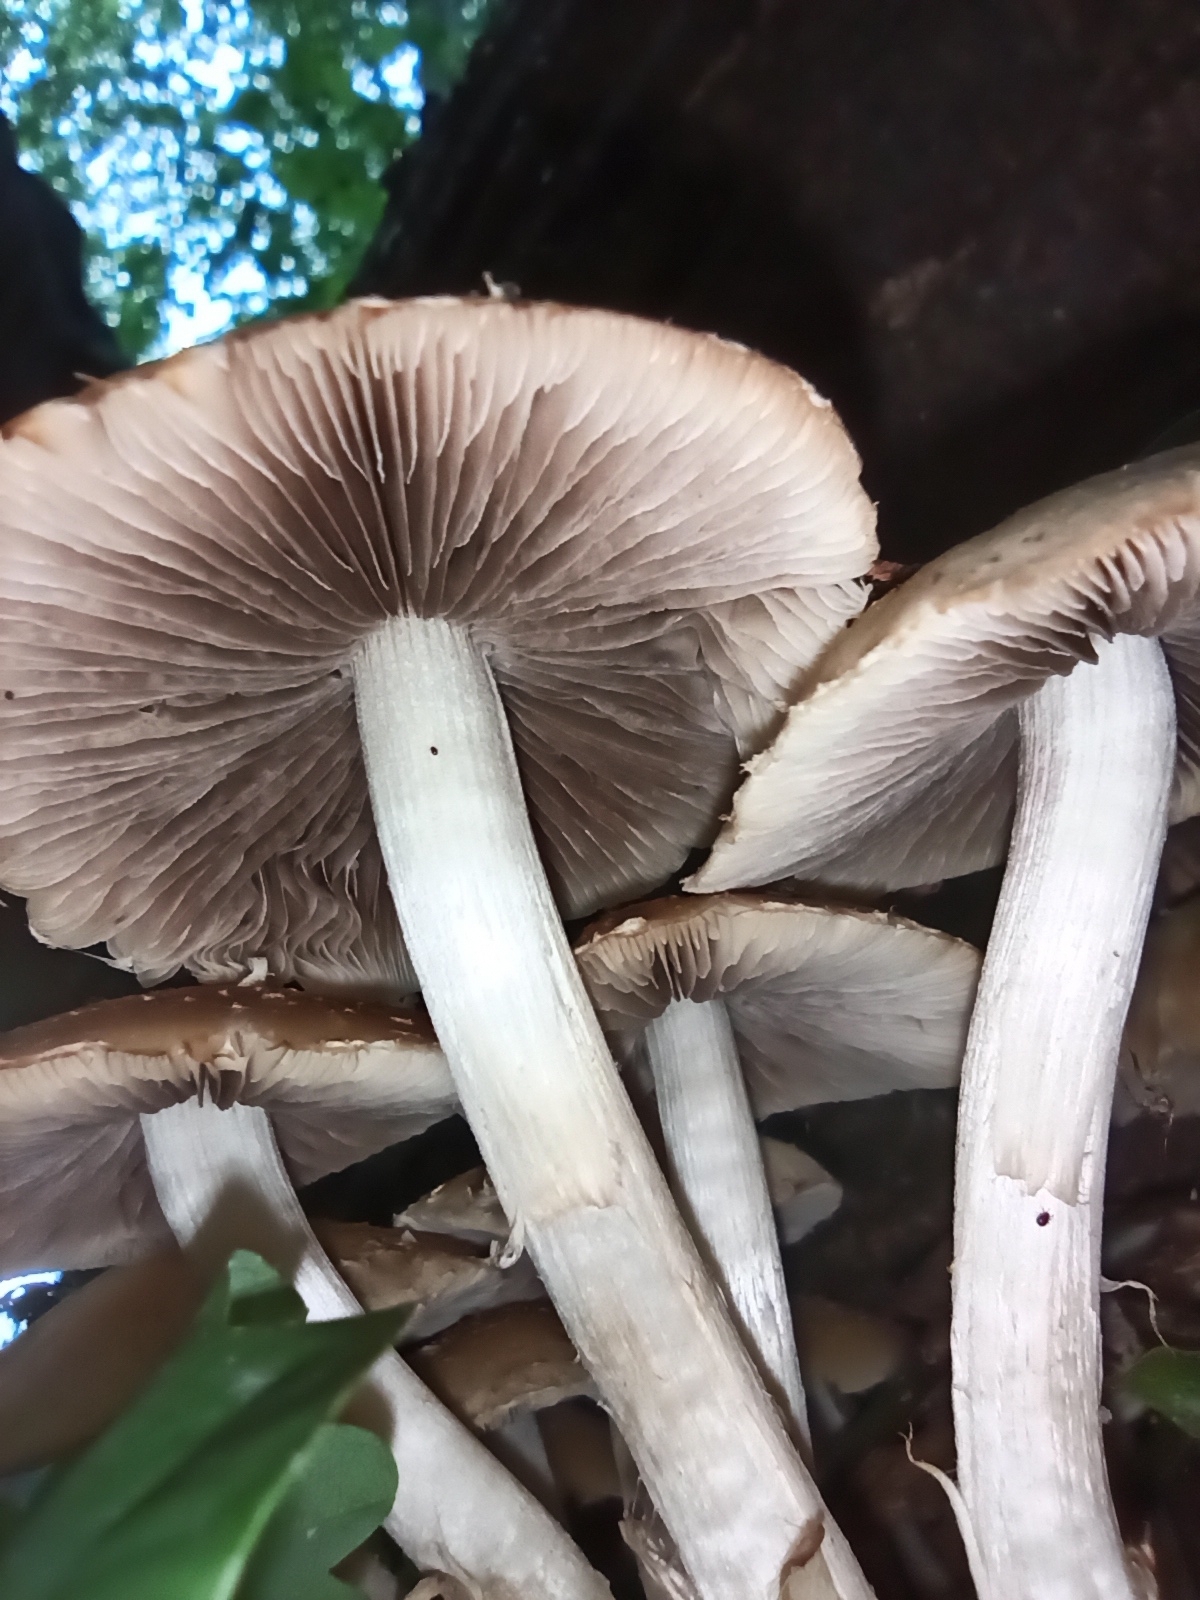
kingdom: Fungi
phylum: Basidiomycota
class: Agaricomycetes
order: Agaricales
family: Psathyrellaceae
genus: Candolleomyces
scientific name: Candolleomyces candolleanus
